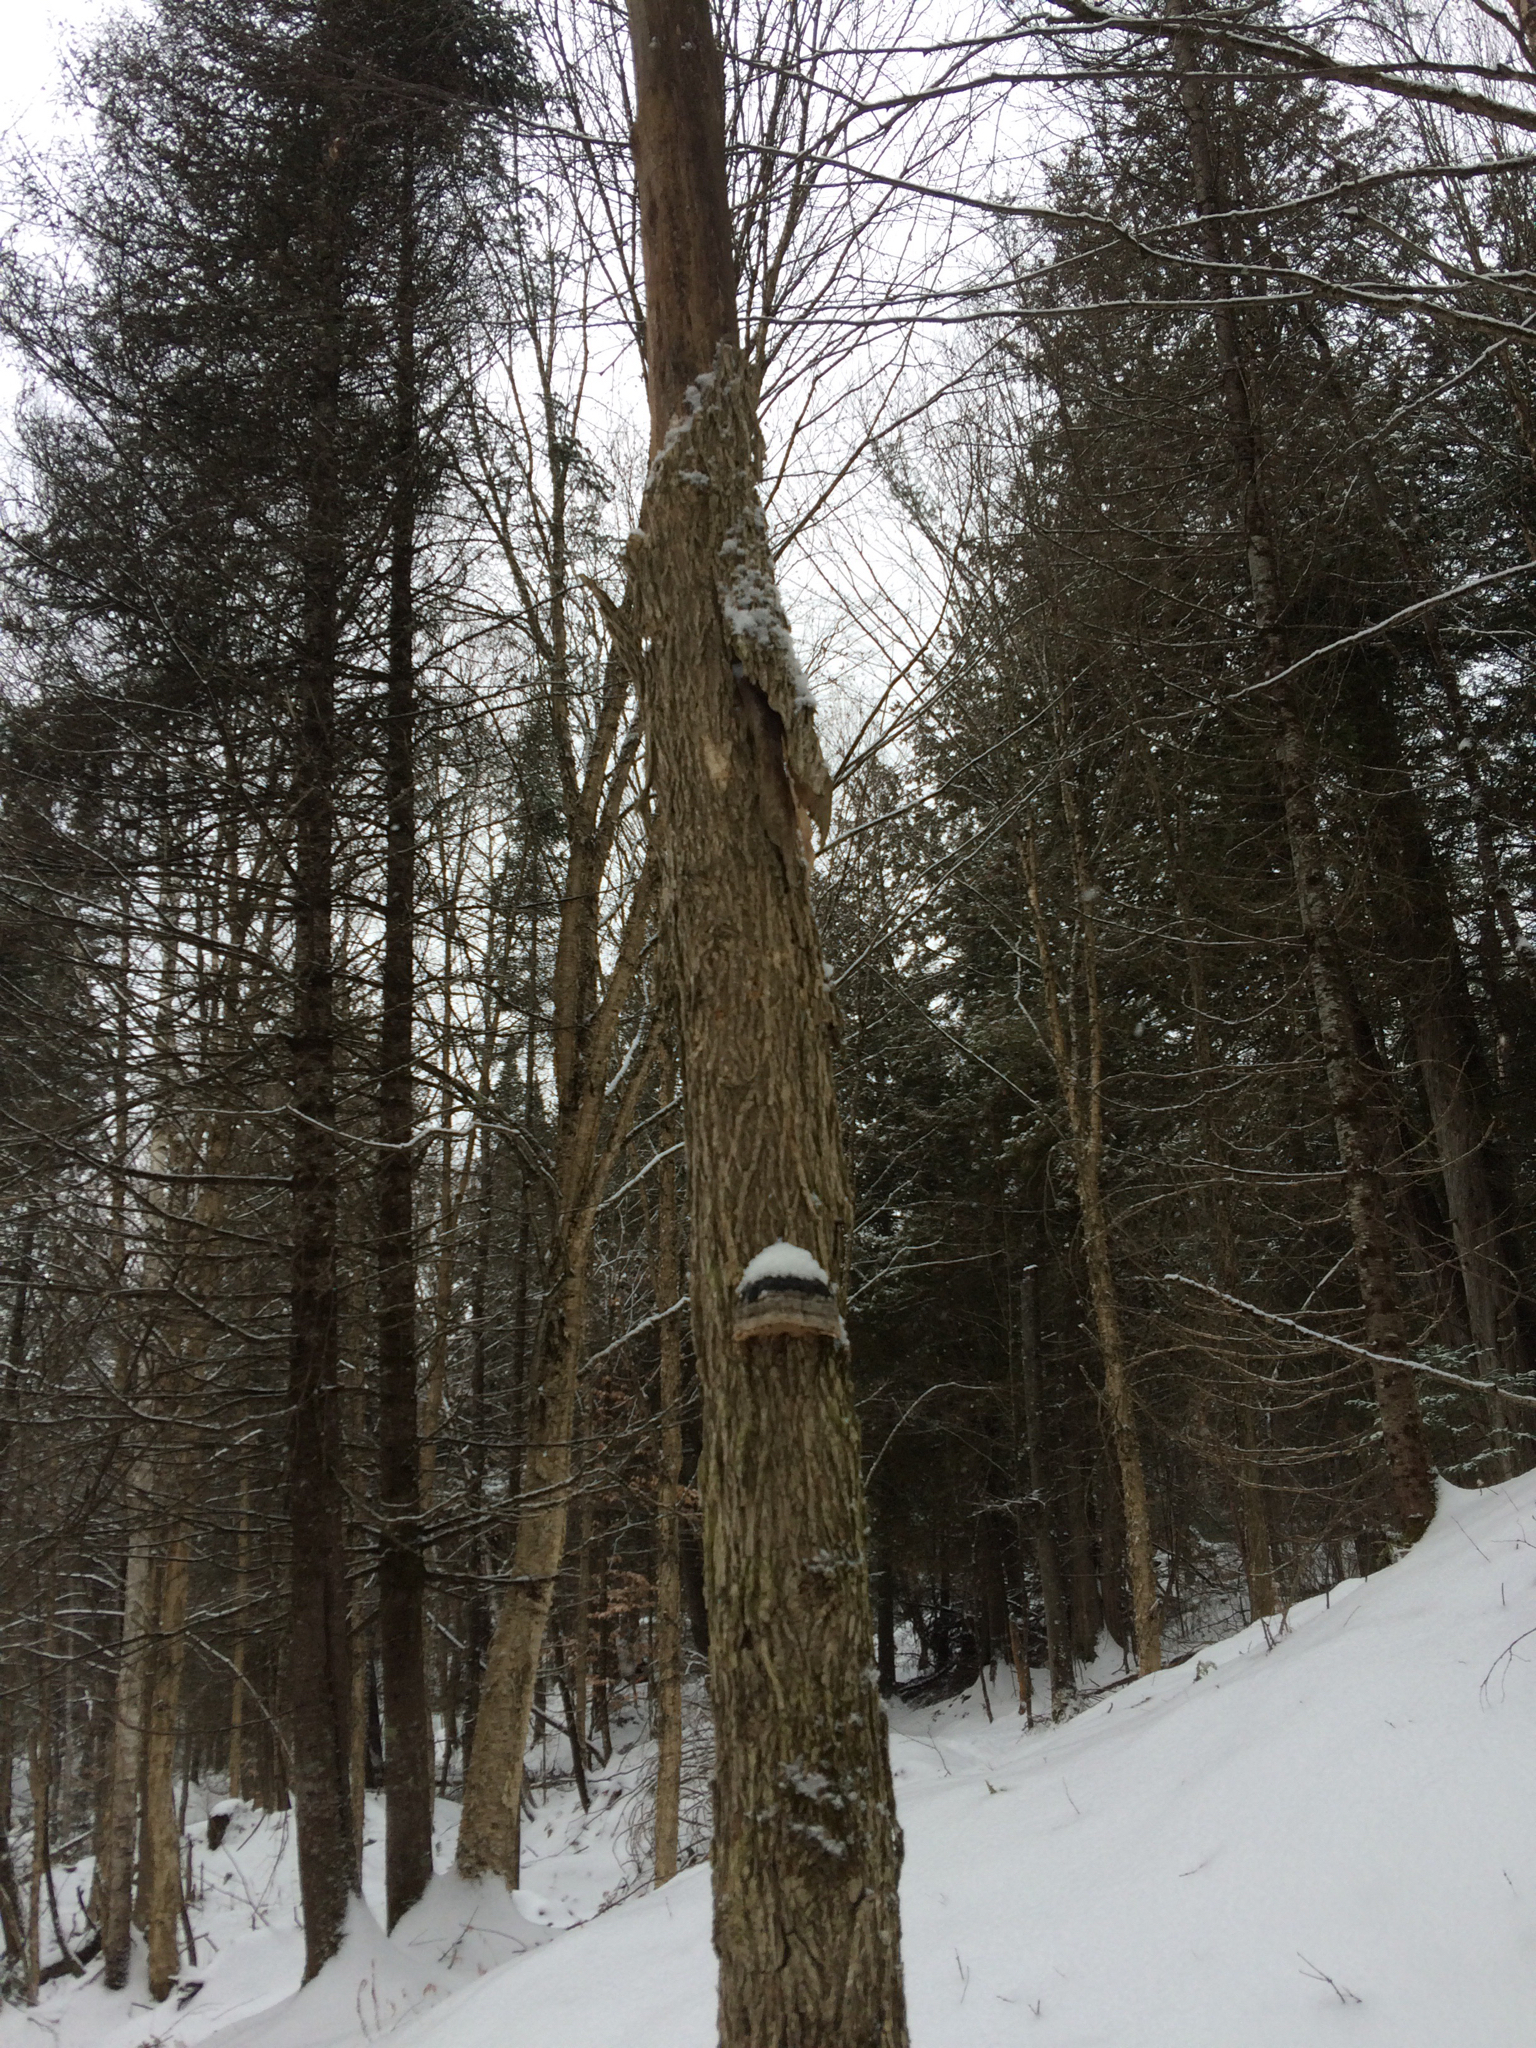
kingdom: Plantae
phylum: Tracheophyta
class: Magnoliopsida
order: Rosales
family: Ulmaceae
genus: Ulmus
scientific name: Ulmus americana
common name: American elm
